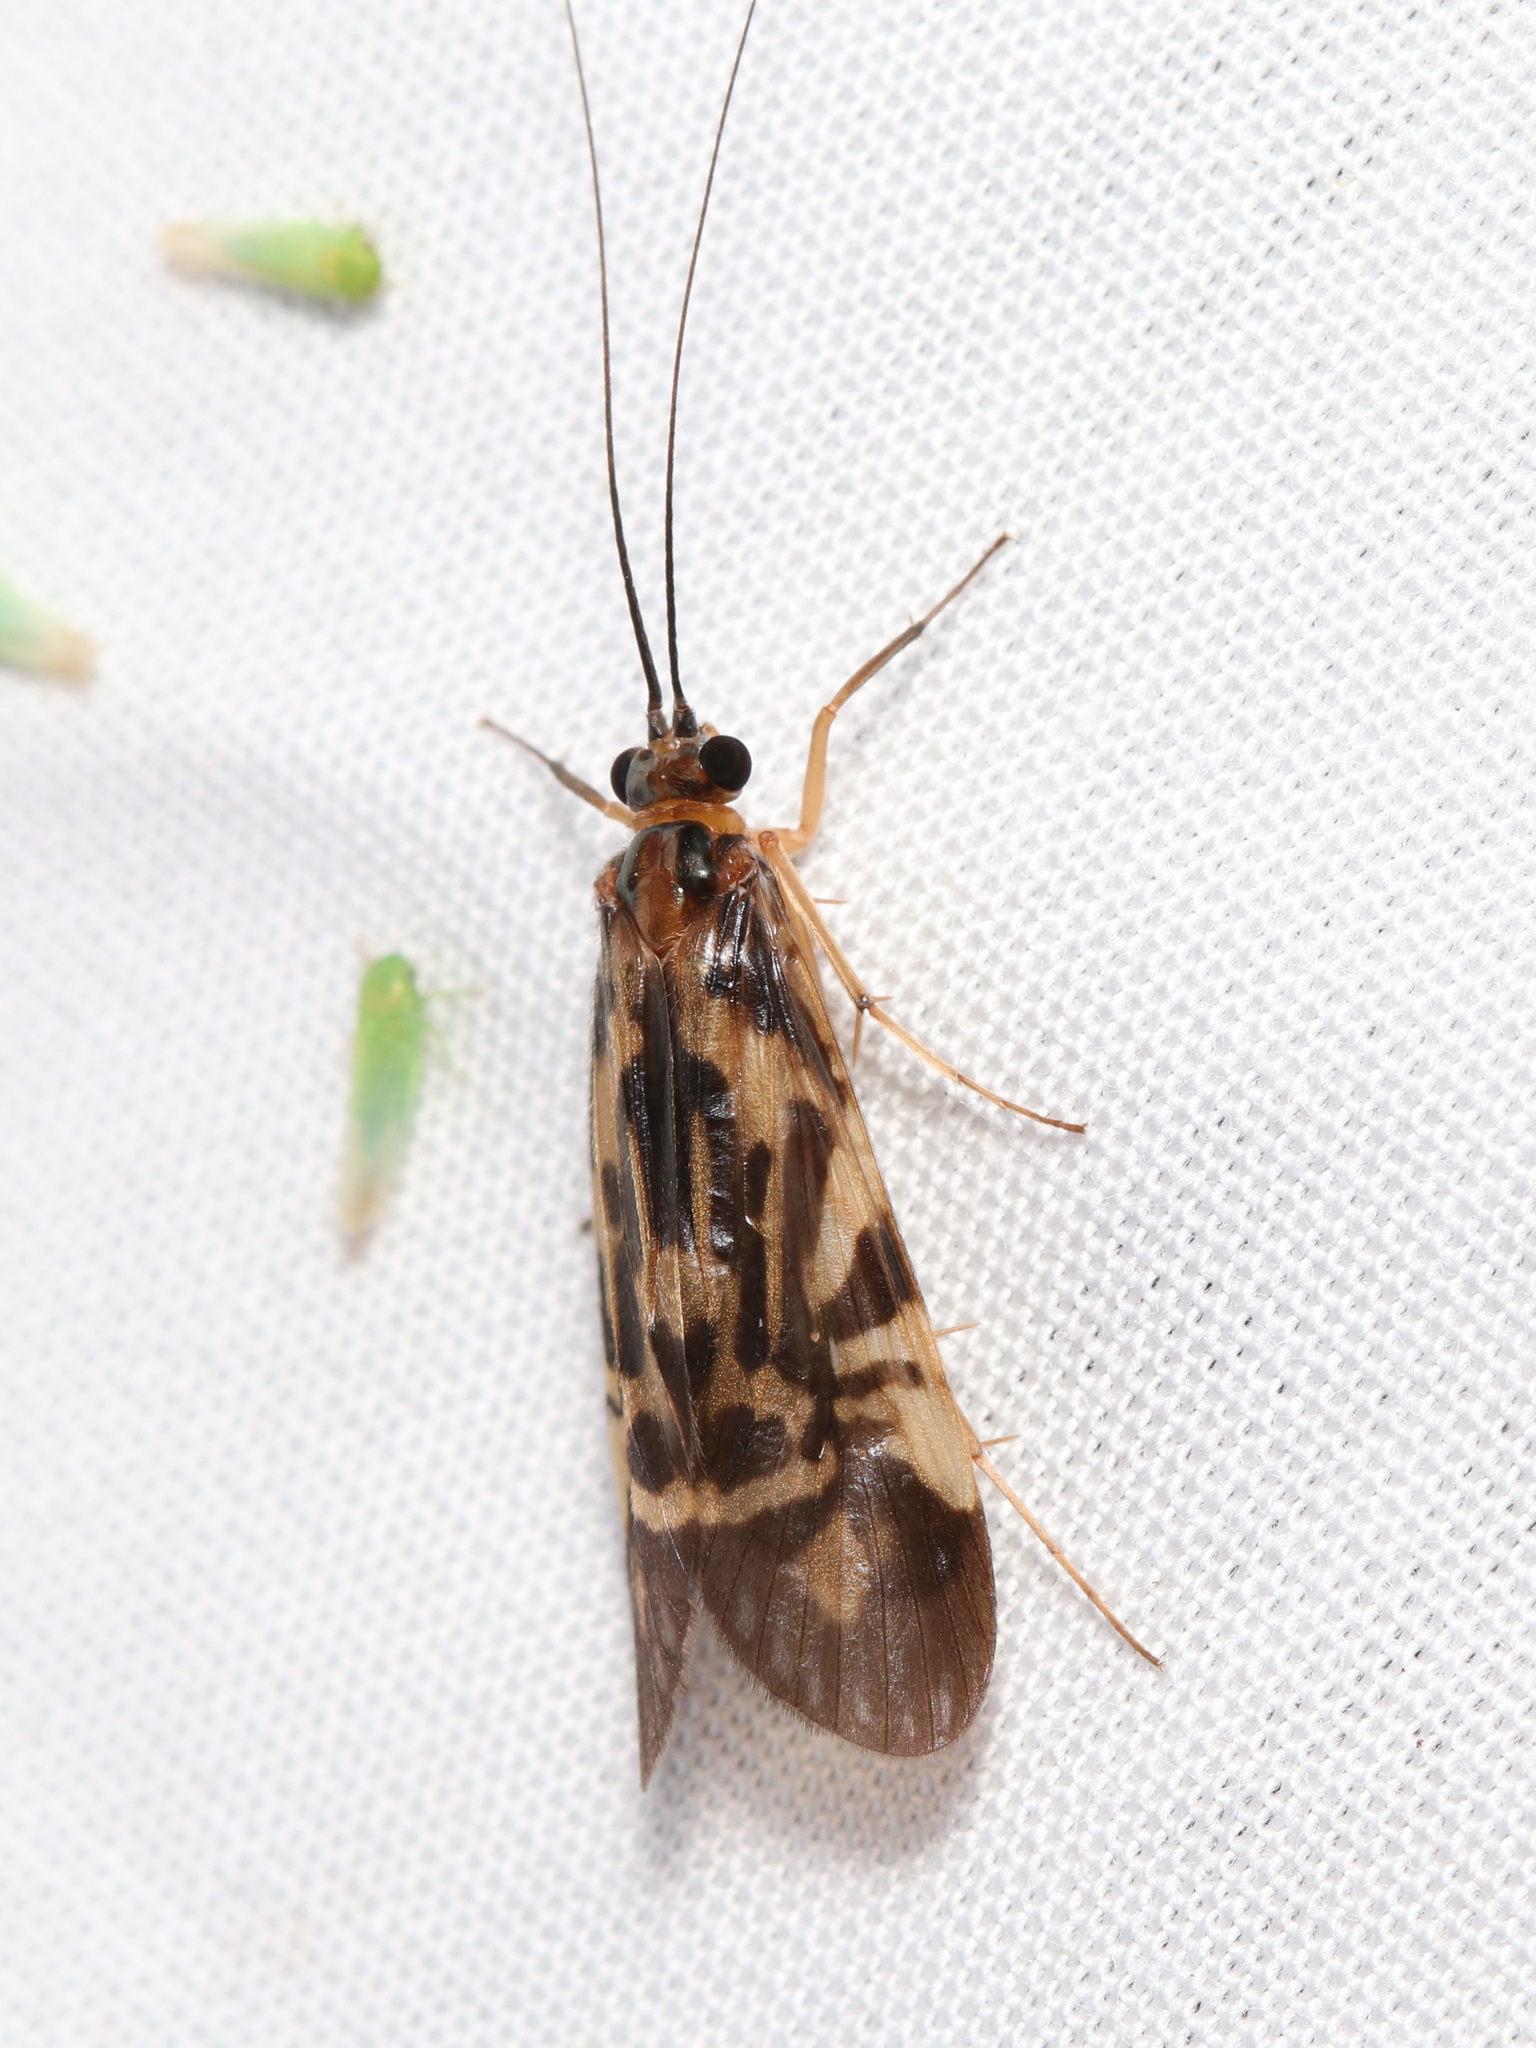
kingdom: Animalia
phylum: Arthropoda
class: Insecta
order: Trichoptera
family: Hydropsychidae
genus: Macrostemum
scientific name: Macrostemum zebratum
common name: Zebra caddisfly
